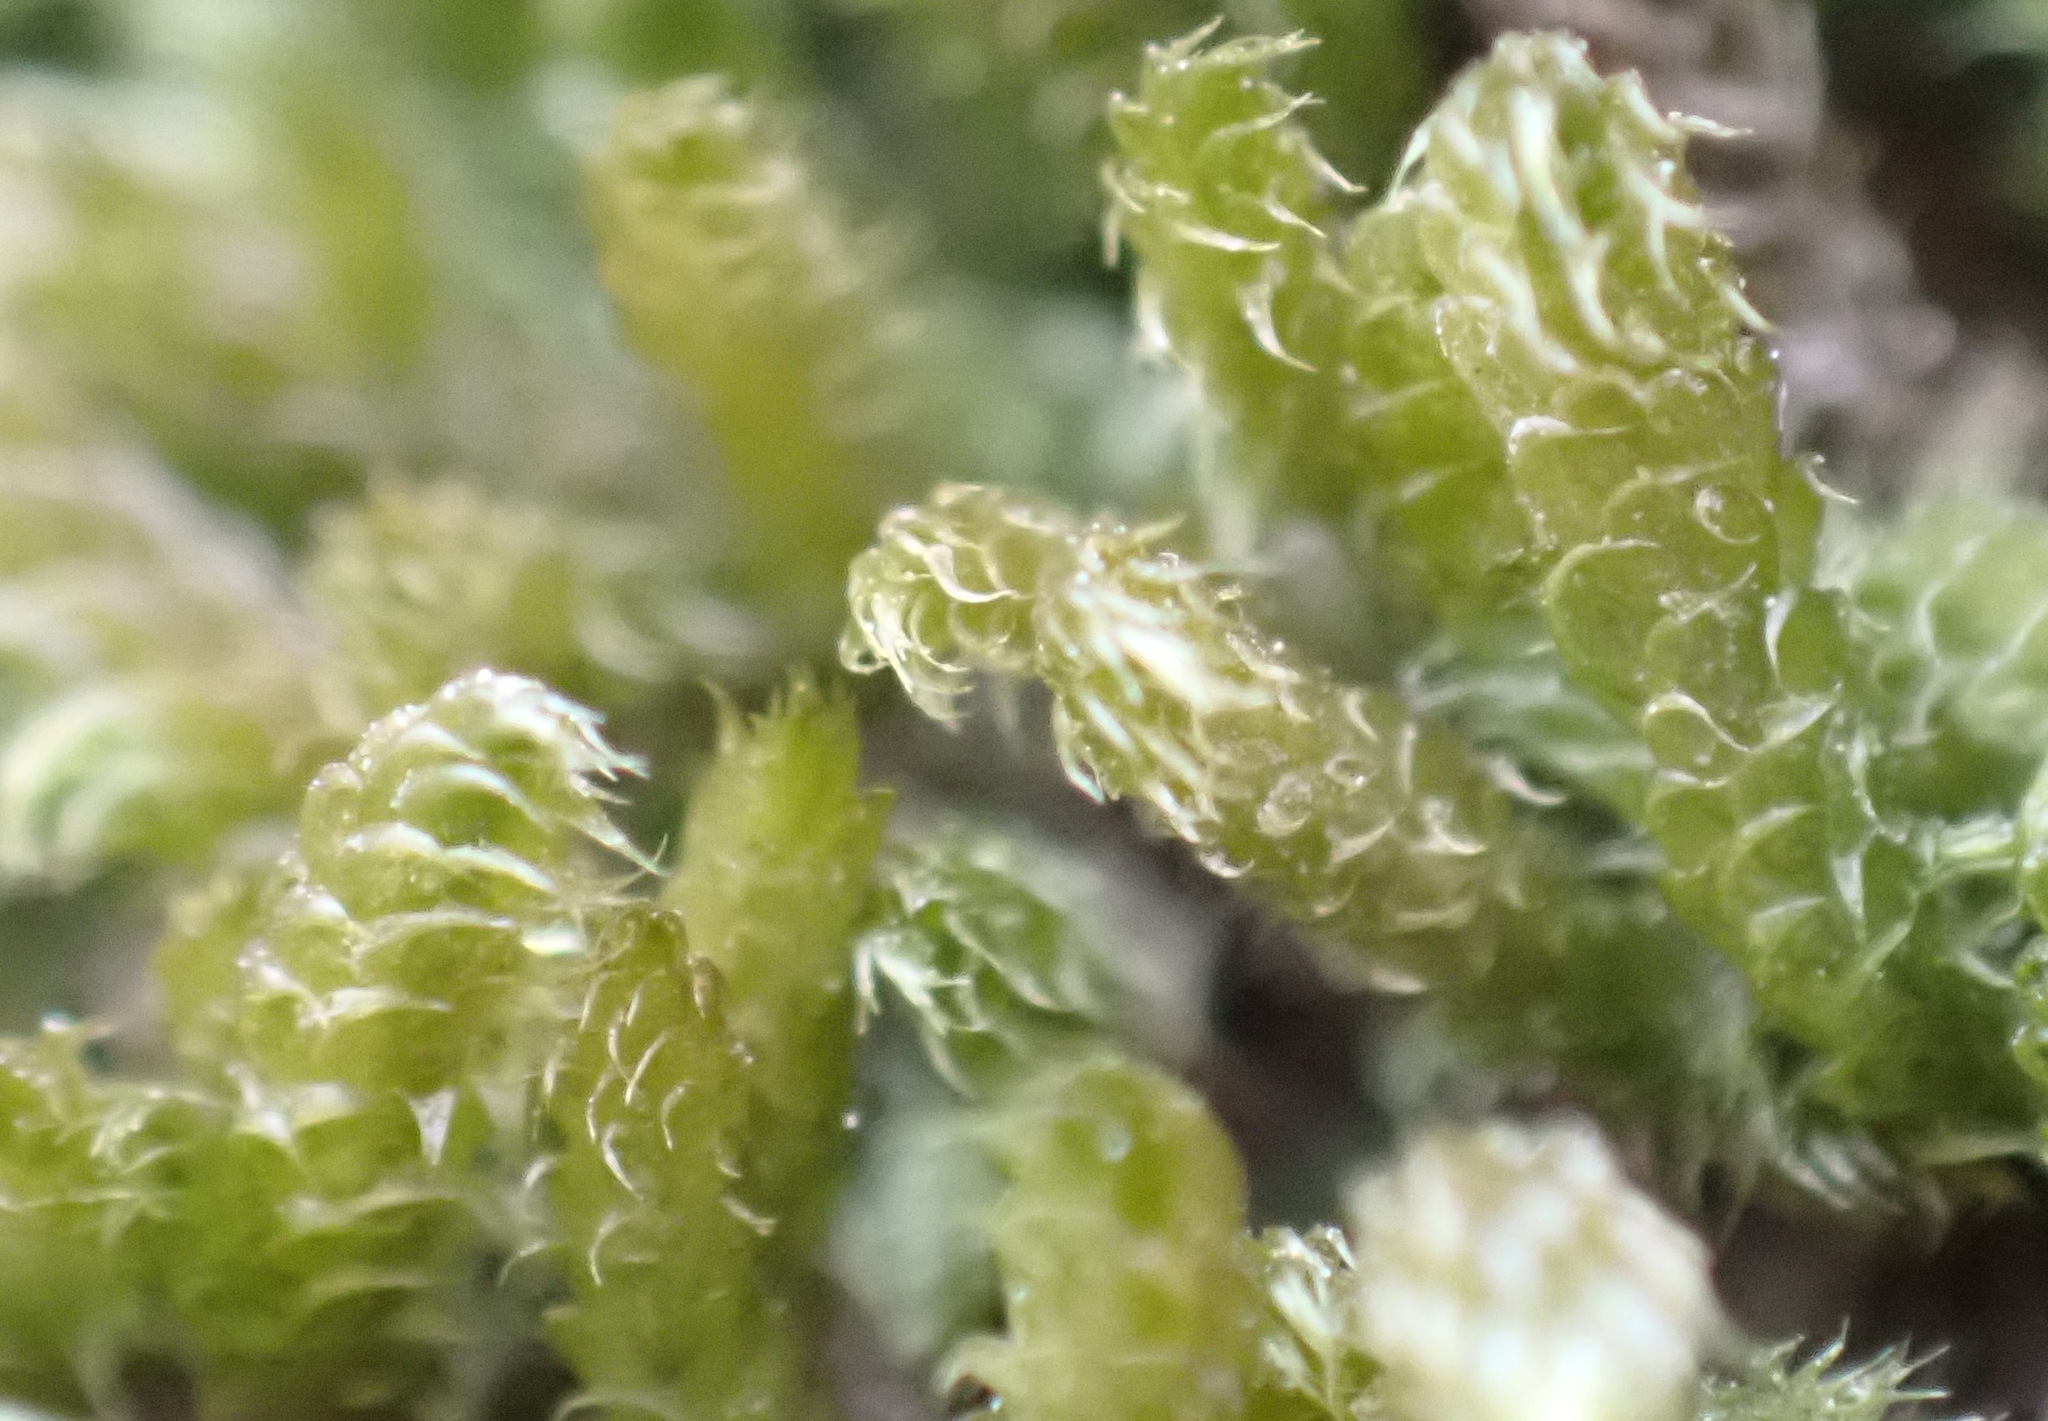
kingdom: Plantae
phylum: Bryophyta
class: Bryopsida
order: Hypnales
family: Hypnaceae
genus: Hypnum
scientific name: Hypnum cupressiforme
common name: Cypress-leaved plait-moss
